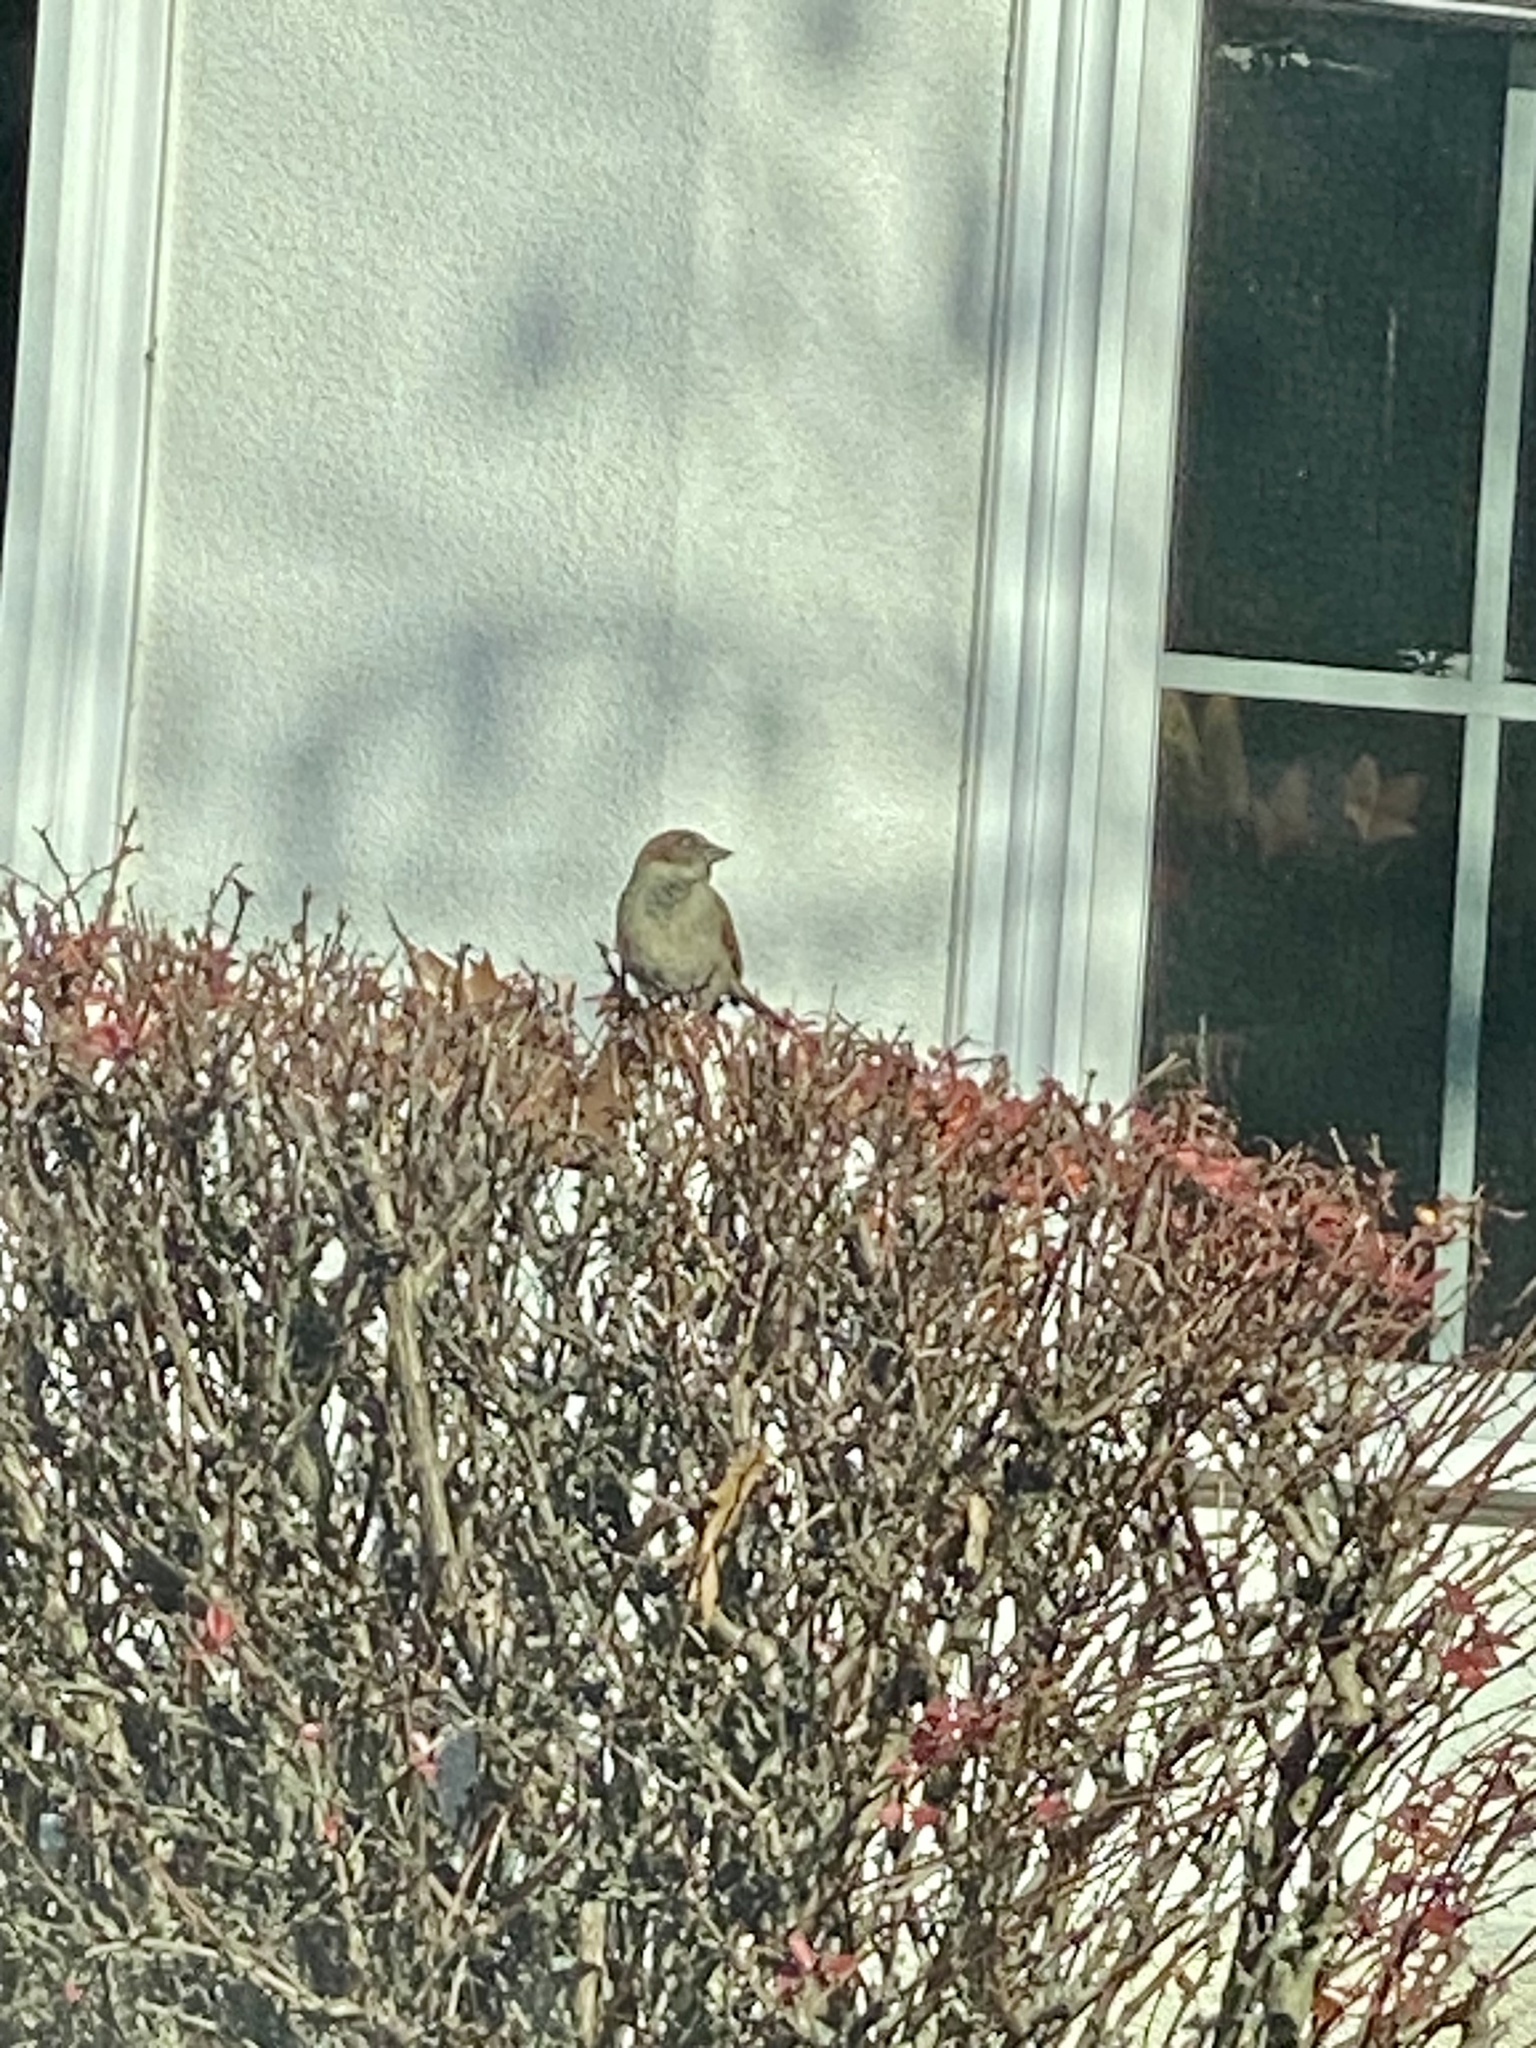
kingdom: Animalia
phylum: Chordata
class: Aves
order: Passeriformes
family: Passeridae
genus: Passer
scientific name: Passer domesticus
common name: House sparrow
